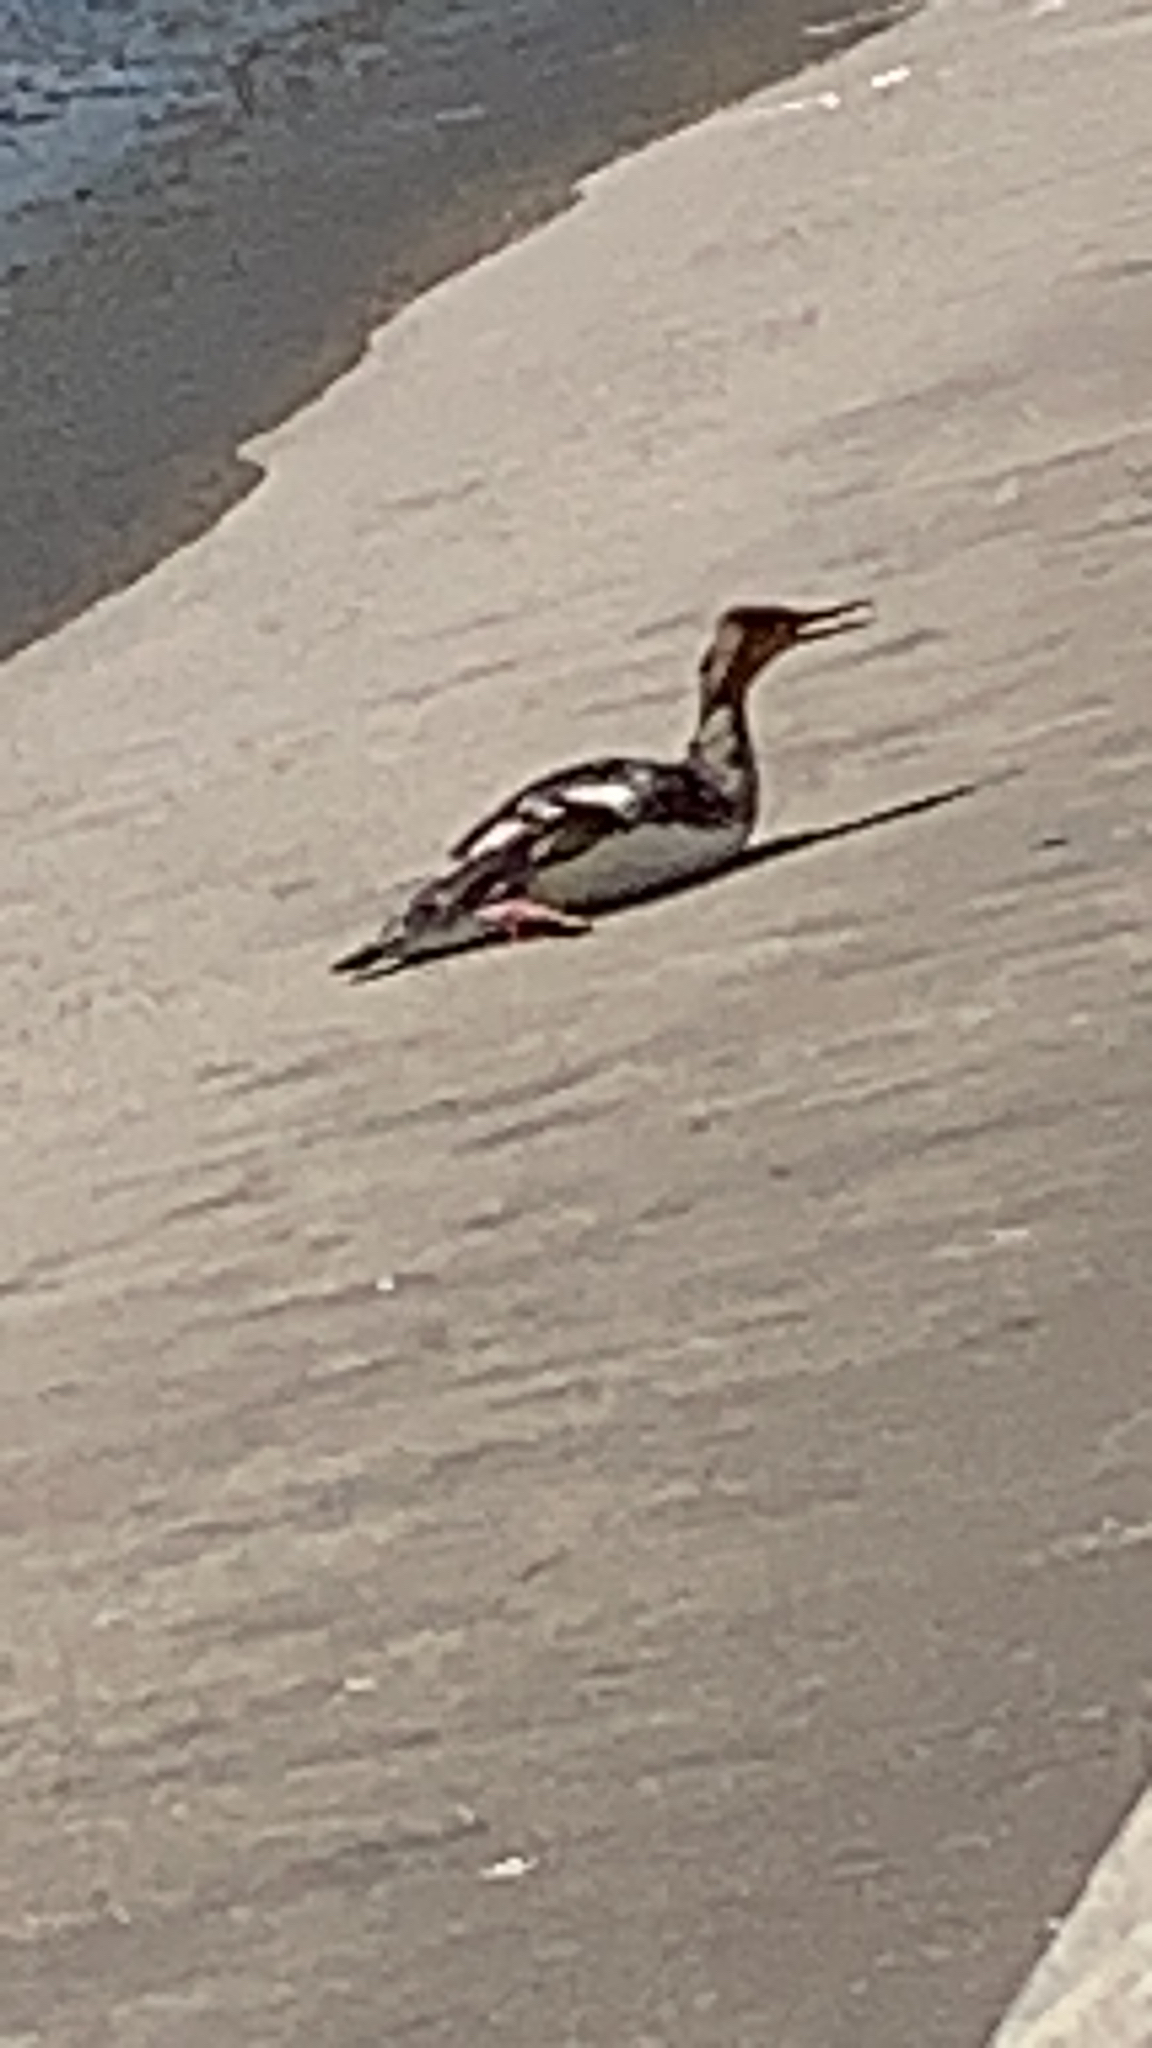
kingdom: Animalia
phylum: Chordata
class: Aves
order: Anseriformes
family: Anatidae
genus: Mergus
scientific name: Mergus serrator
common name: Red-breasted merganser
